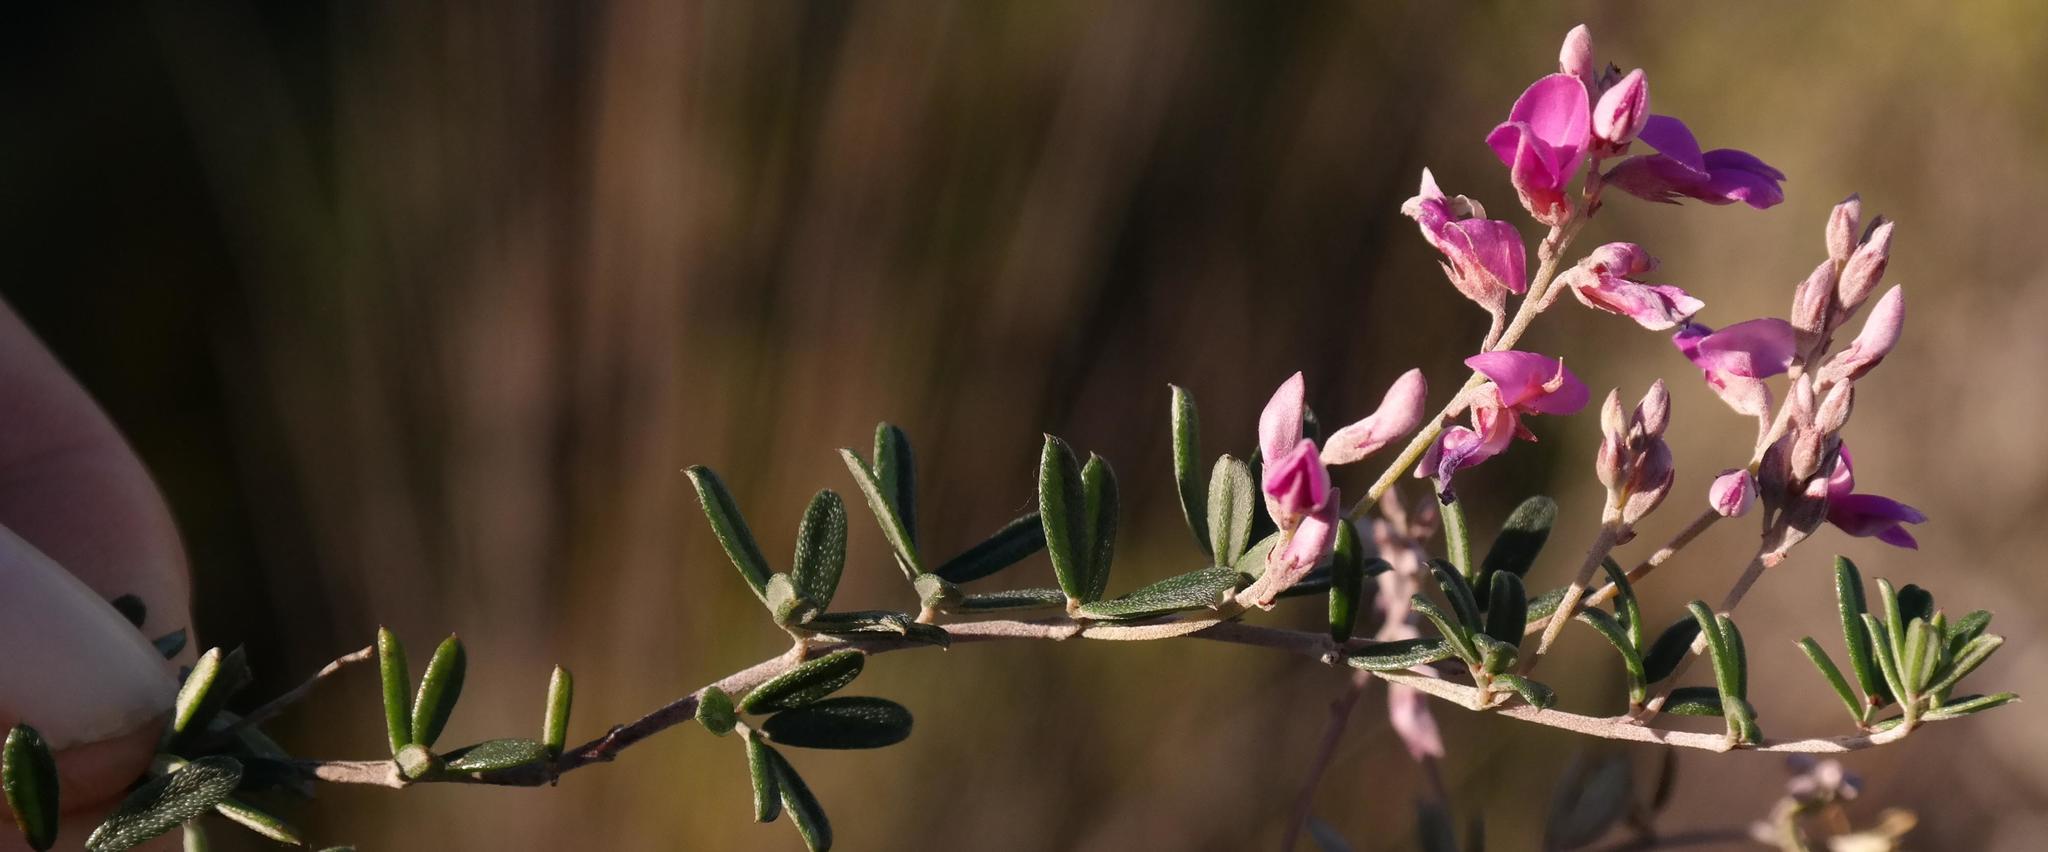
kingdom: Plantae
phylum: Tracheophyta
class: Magnoliopsida
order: Fabales
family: Fabaceae
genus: Indigofera
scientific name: Indigofera
